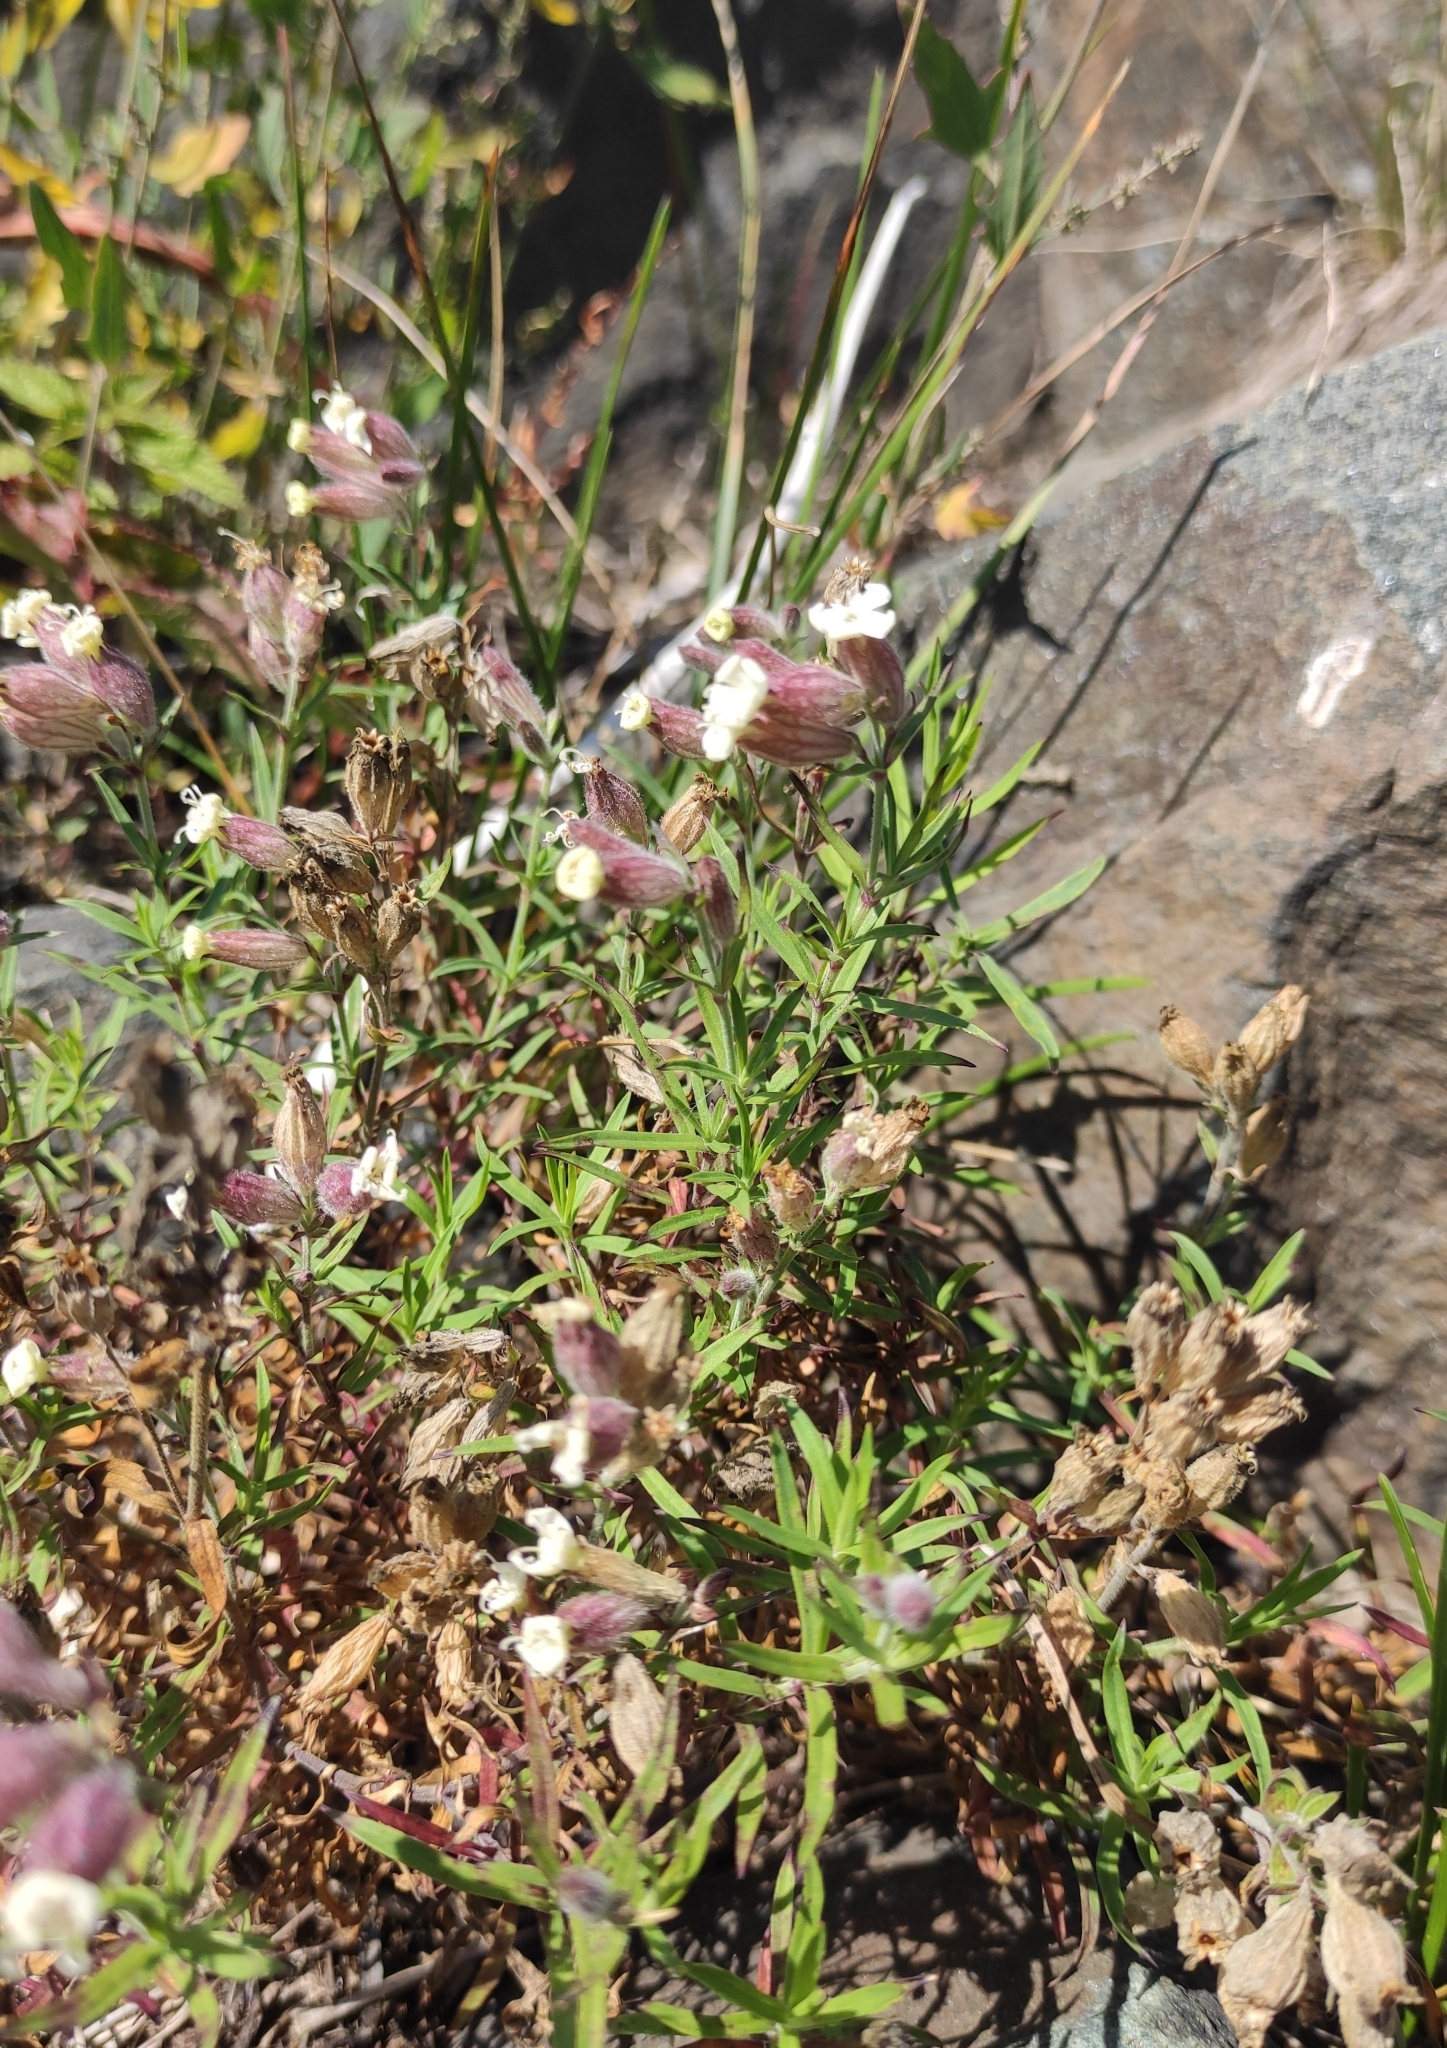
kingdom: Plantae
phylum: Tracheophyta
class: Magnoliopsida
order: Caryophyllales
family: Caryophyllaceae
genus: Silene
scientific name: Silene amoena
